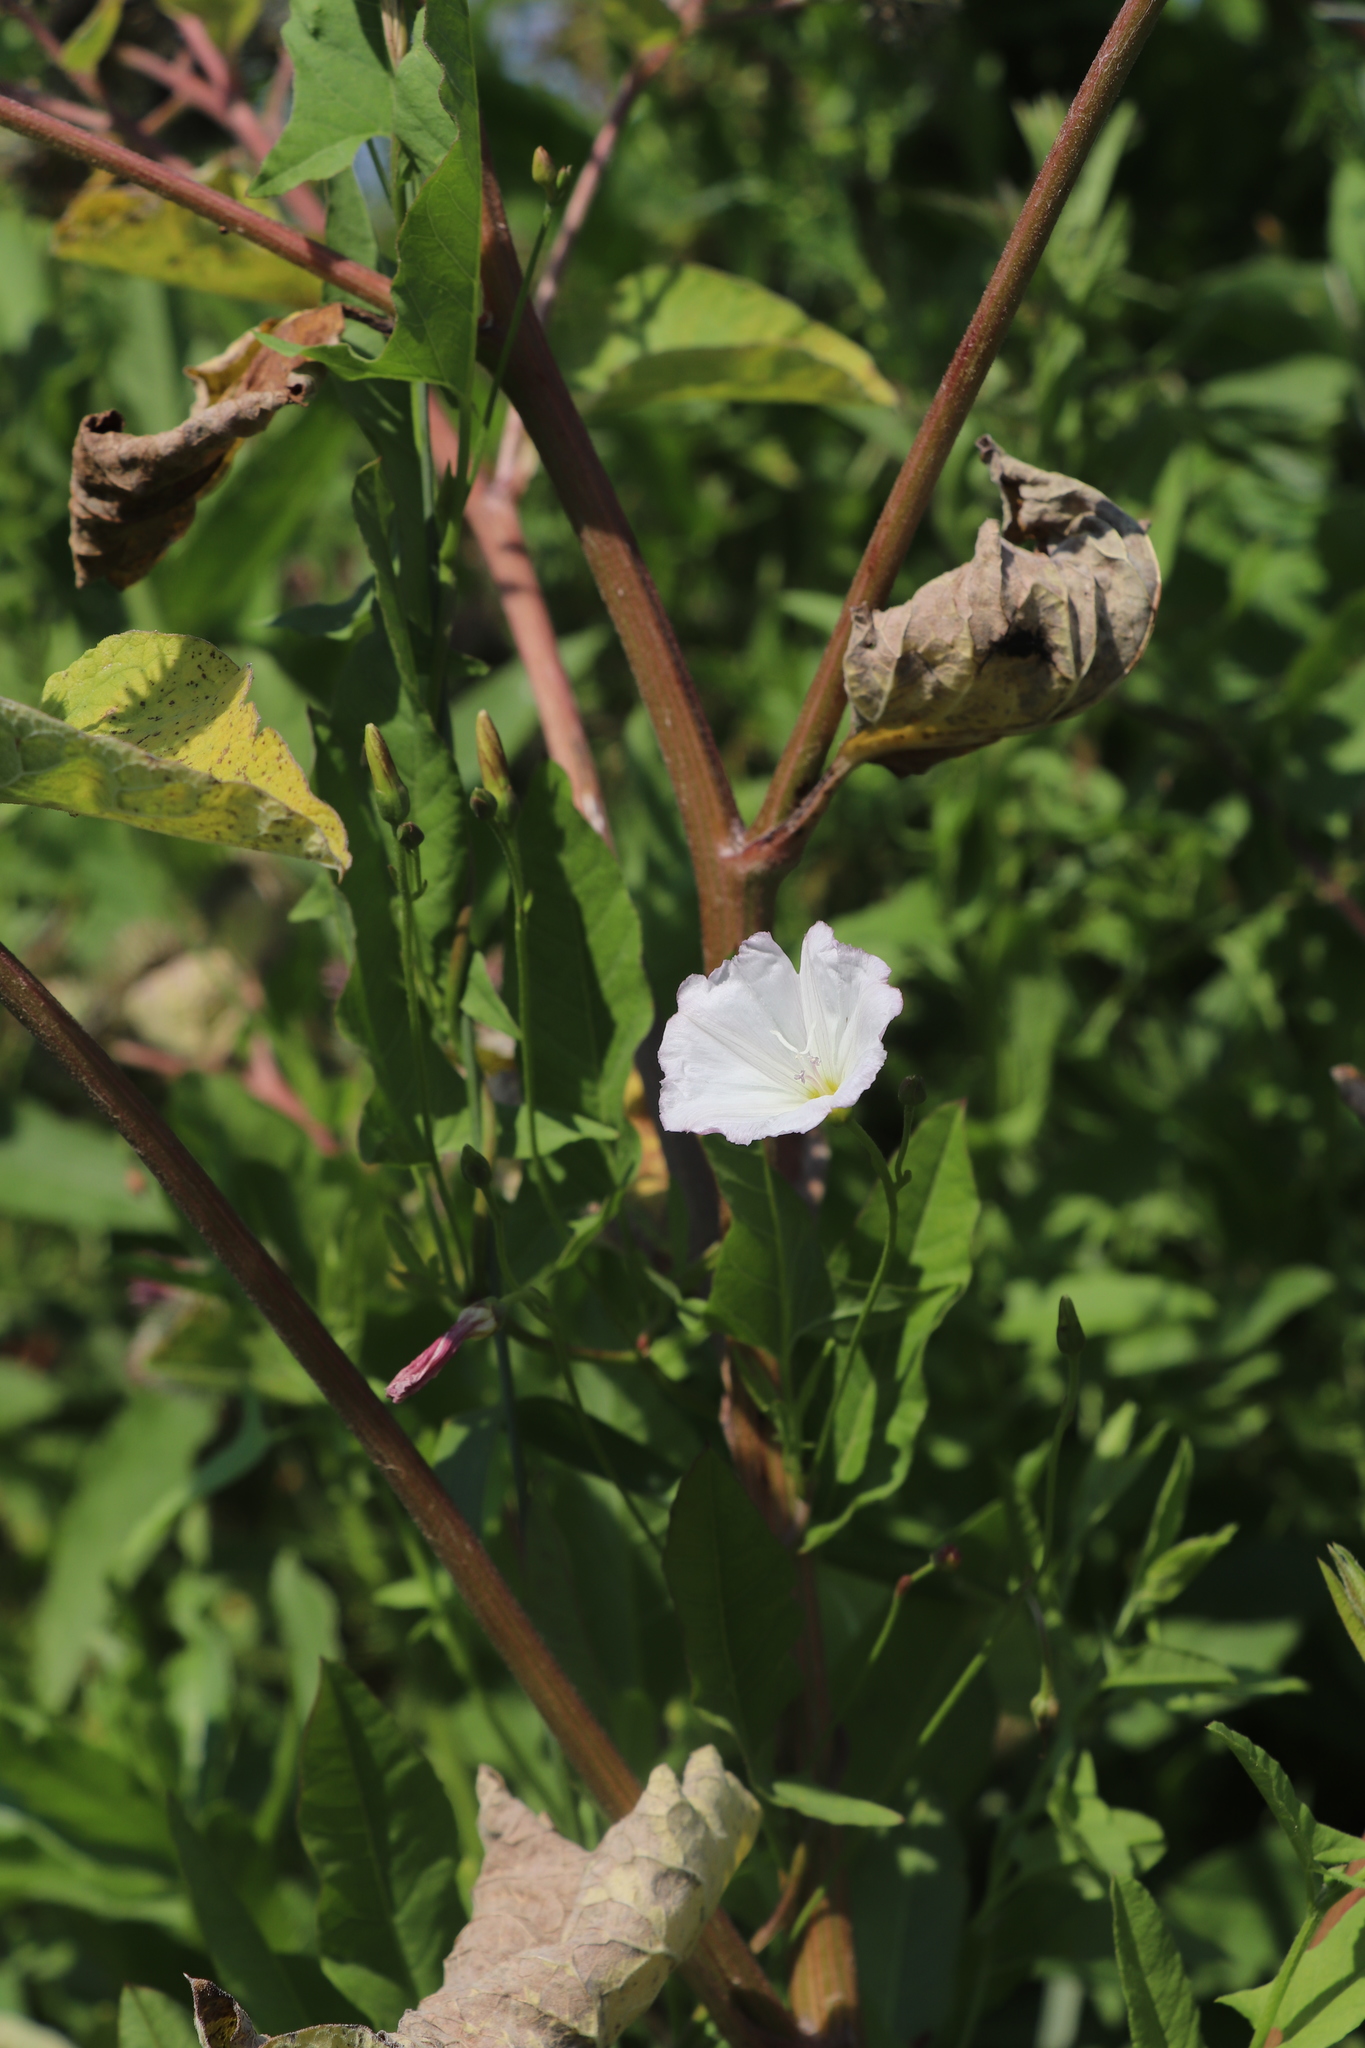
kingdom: Plantae
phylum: Tracheophyta
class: Magnoliopsida
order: Solanales
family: Convolvulaceae
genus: Convolvulus
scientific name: Convolvulus arvensis
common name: Field bindweed
